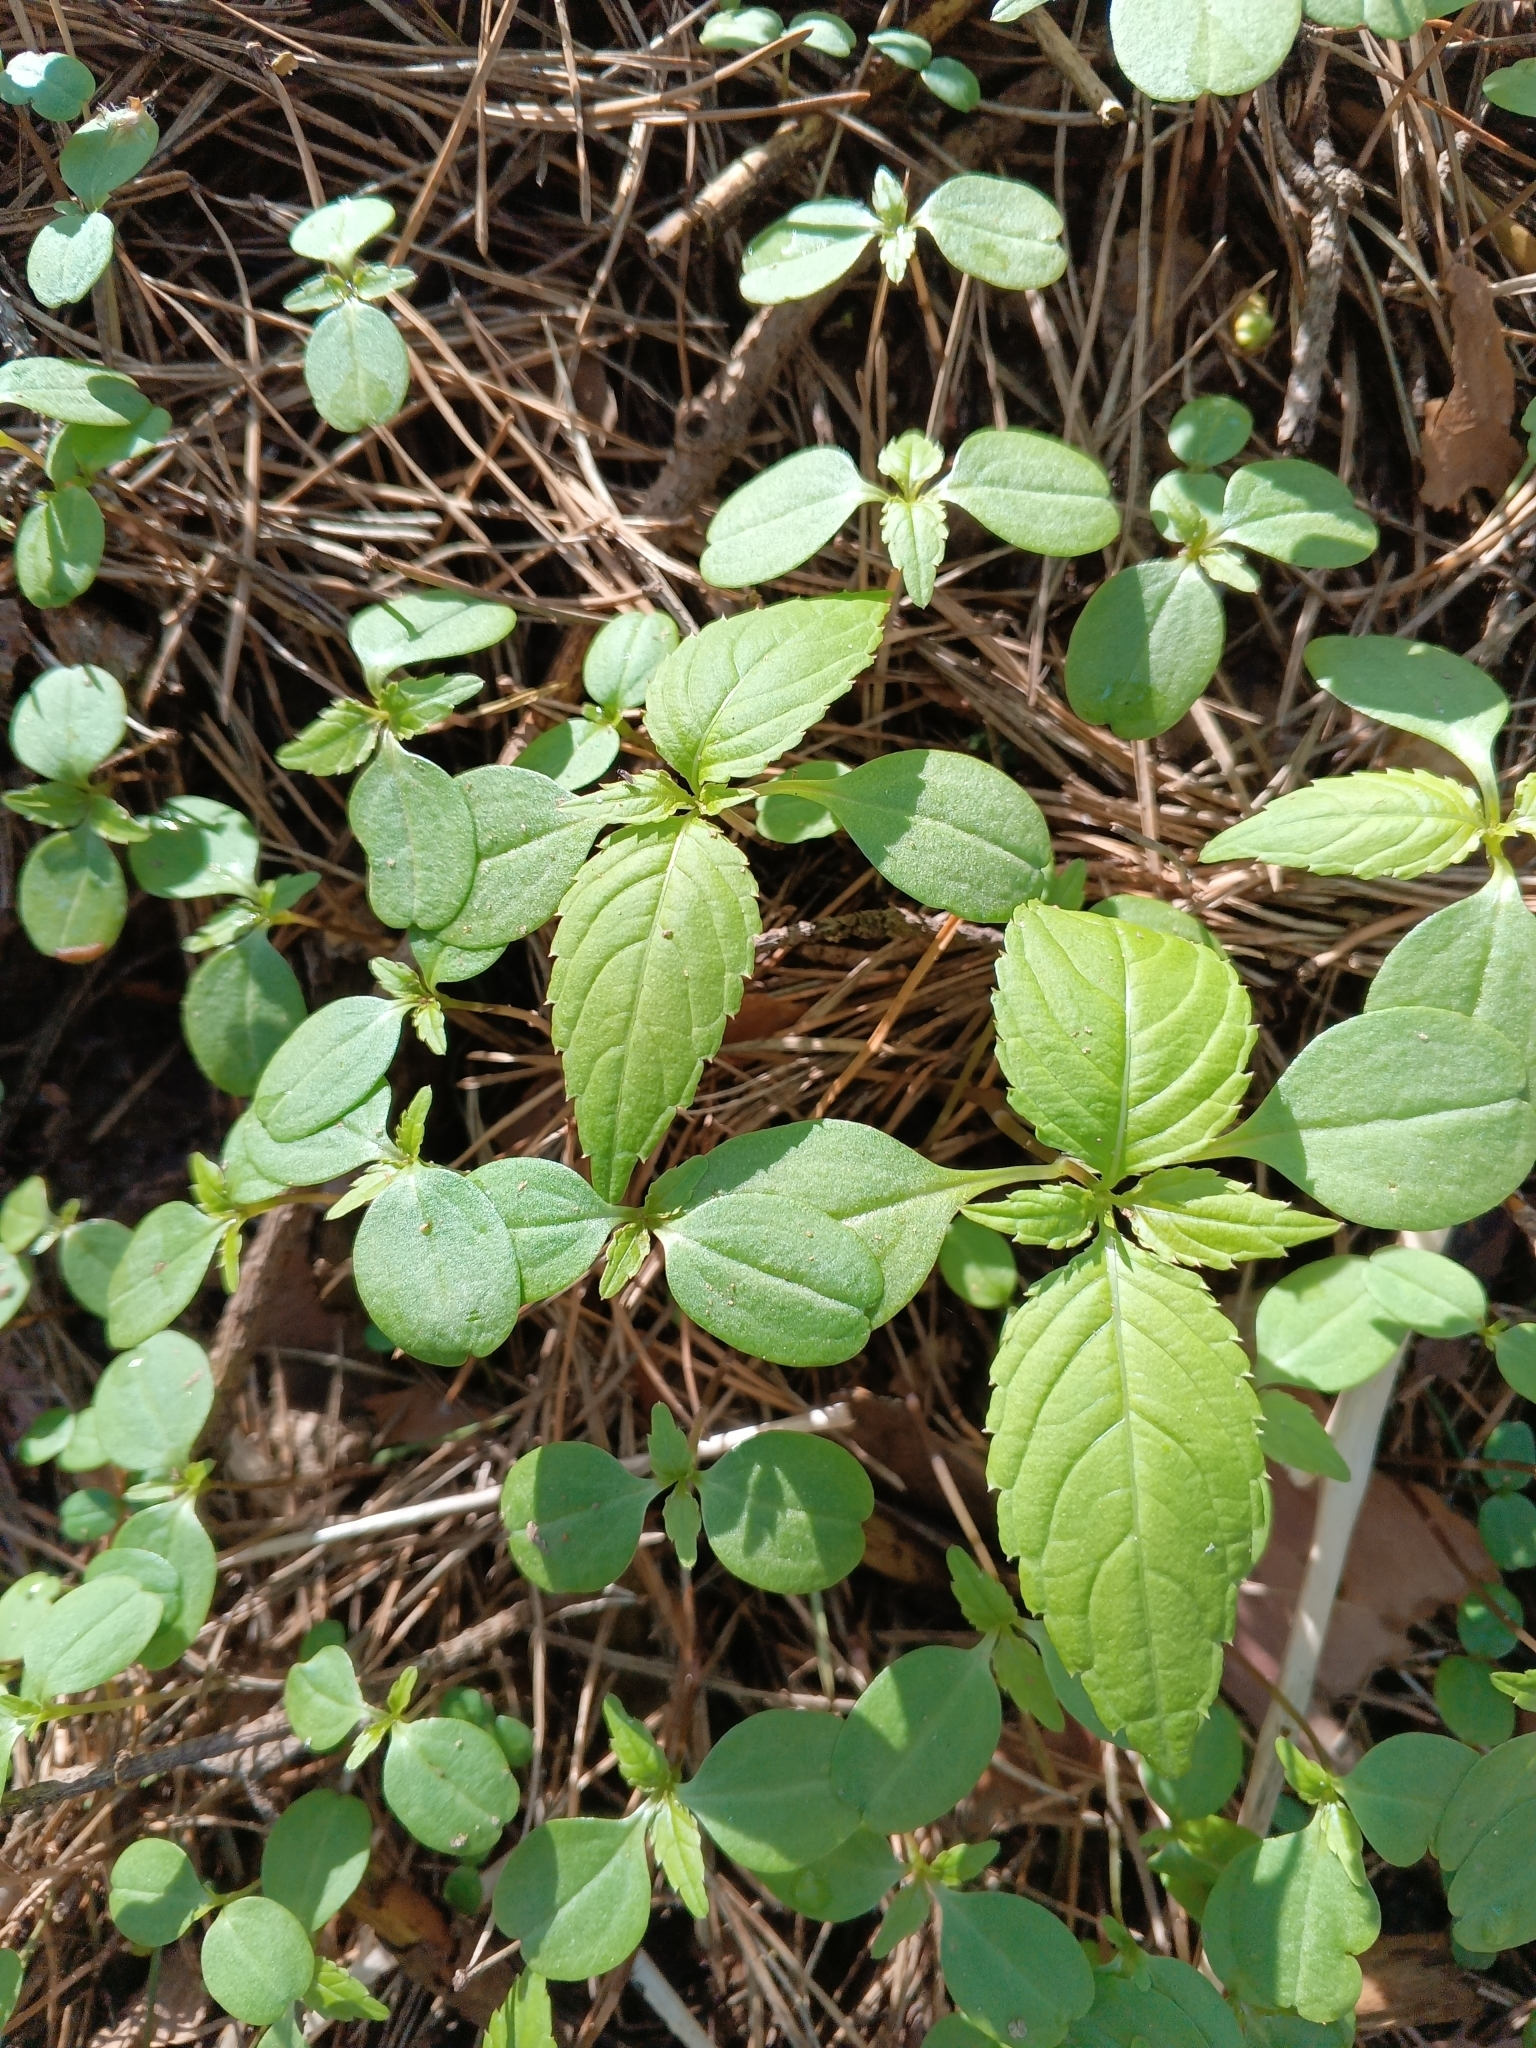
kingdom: Plantae
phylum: Tracheophyta
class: Magnoliopsida
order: Ericales
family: Balsaminaceae
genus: Impatiens
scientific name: Impatiens parviflora
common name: Small balsam
